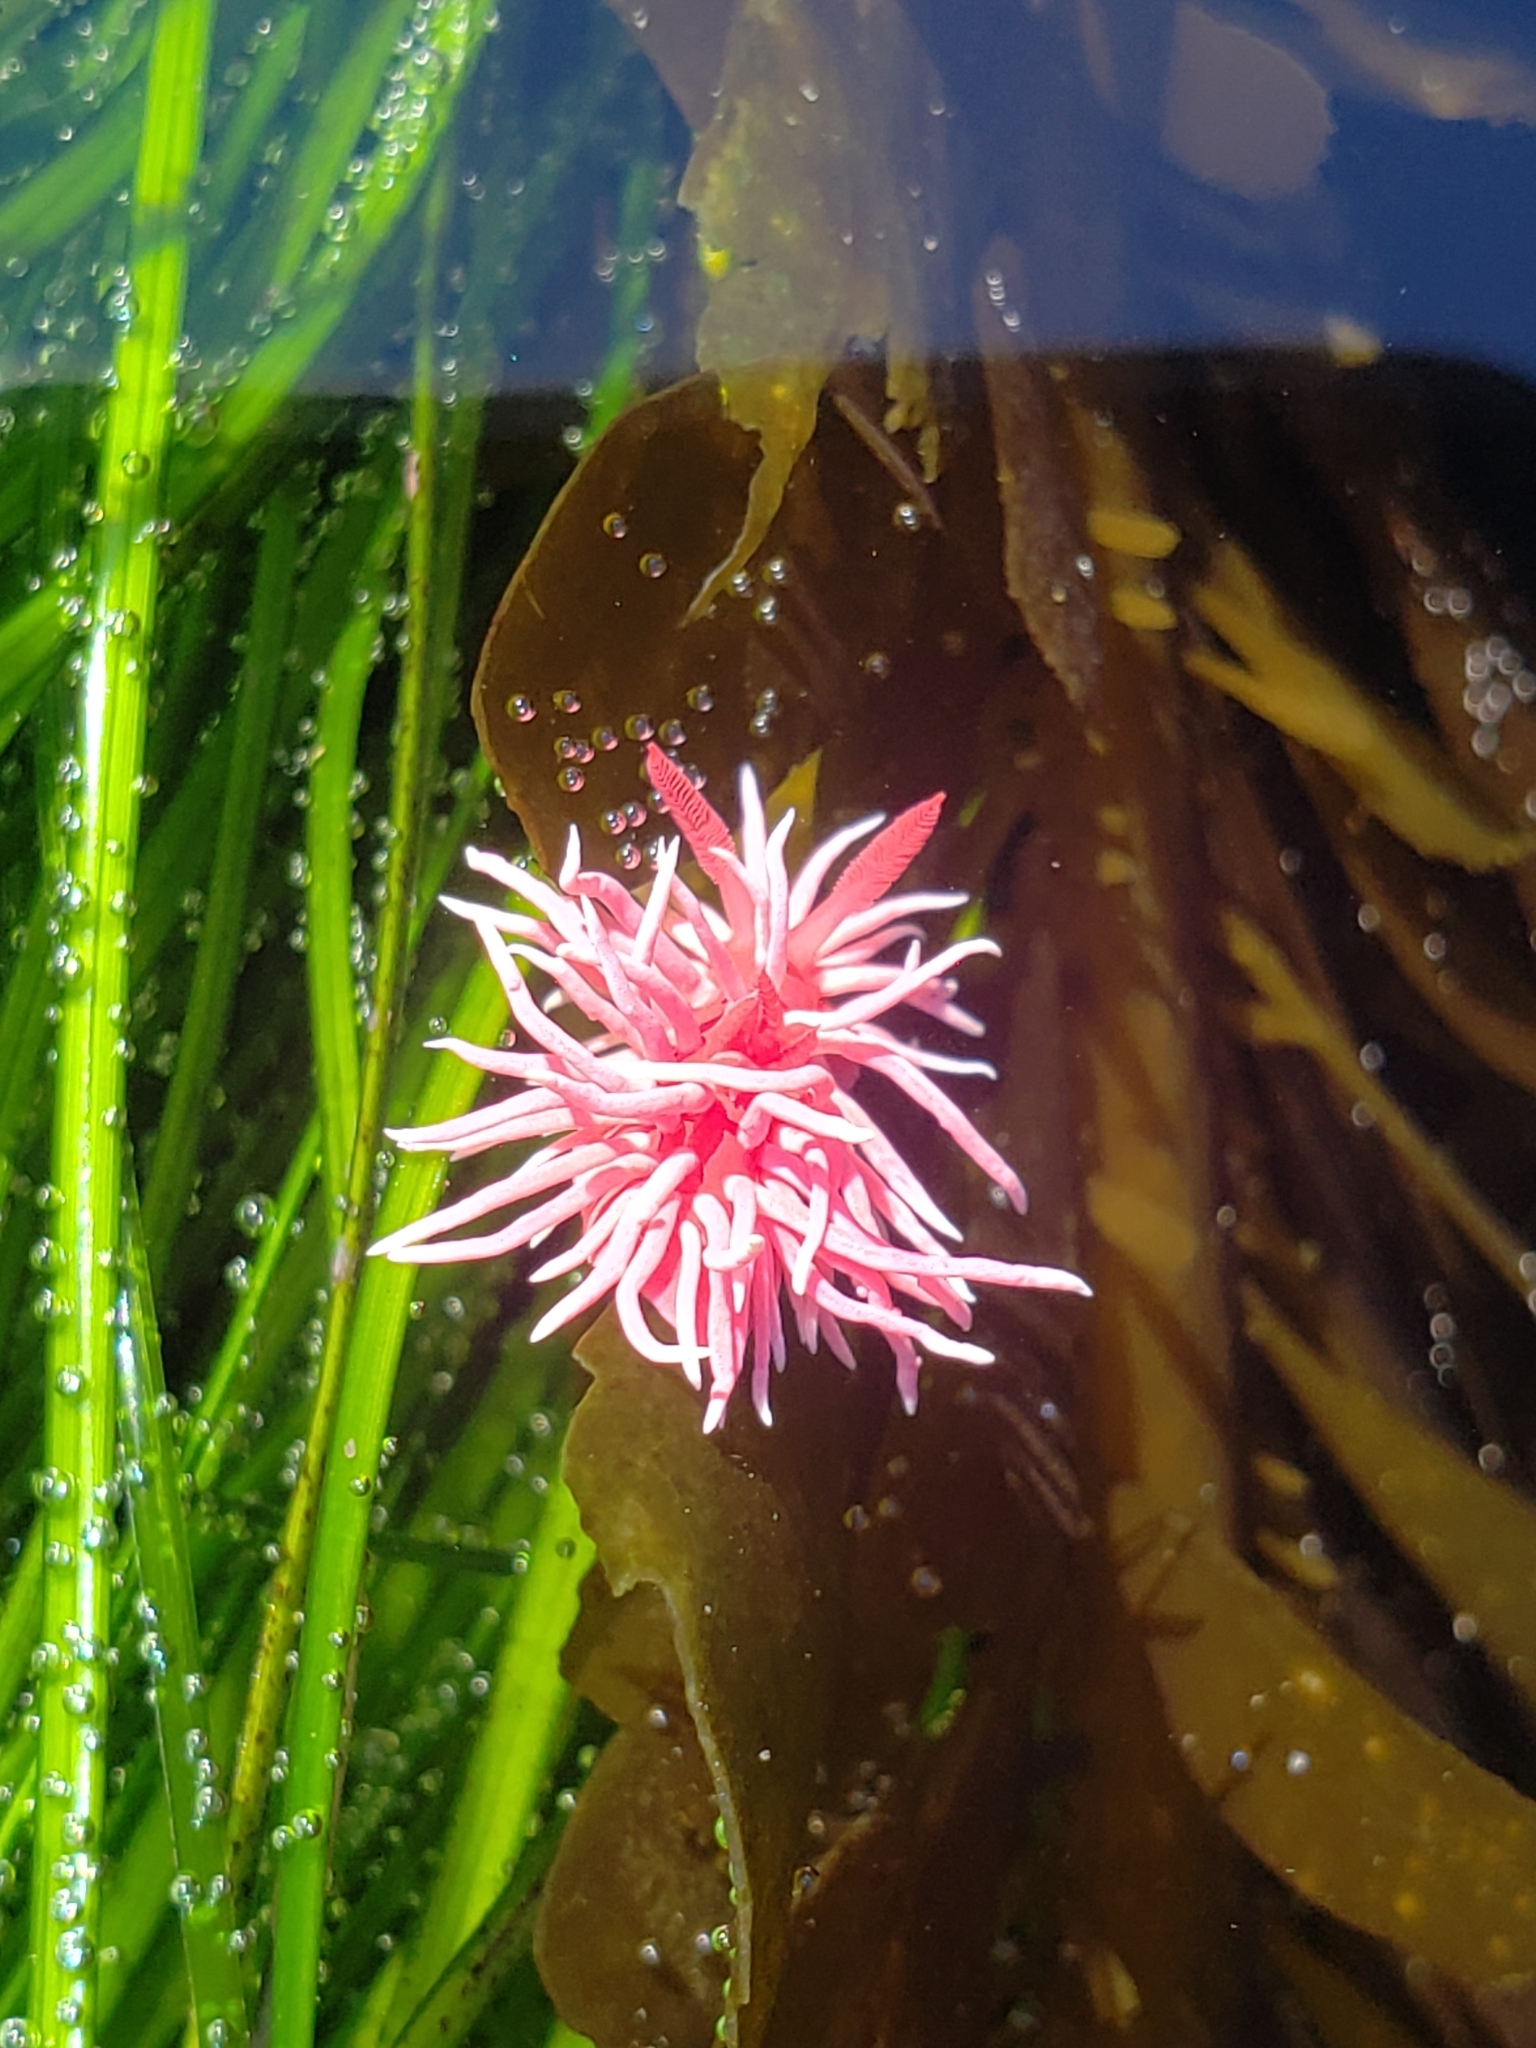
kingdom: Animalia
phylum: Mollusca
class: Gastropoda
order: Nudibranchia
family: Goniodorididae
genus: Okenia
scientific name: Okenia
